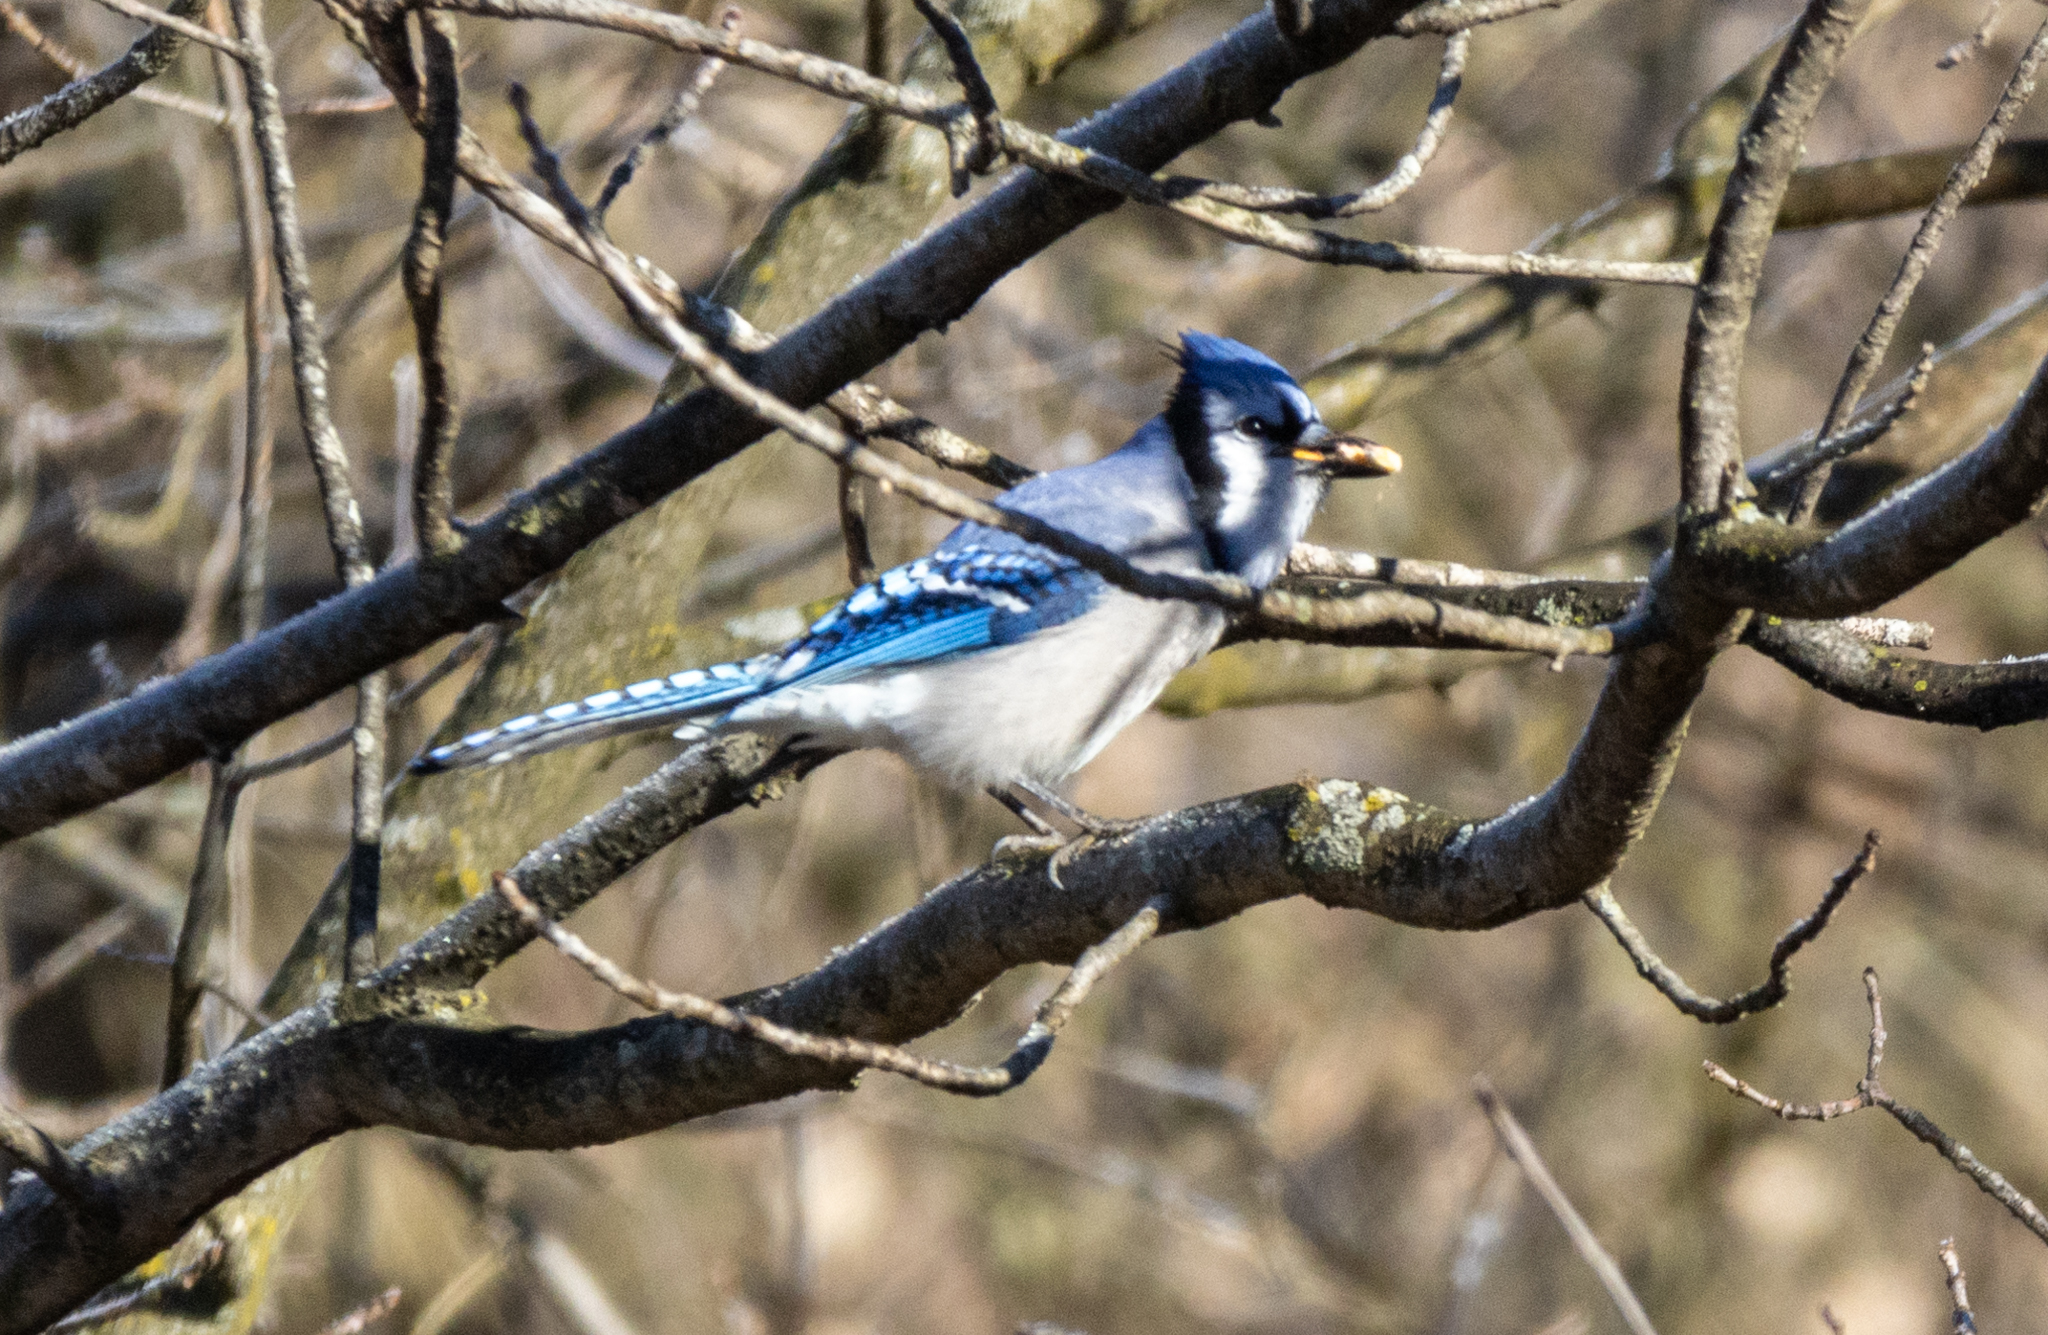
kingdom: Animalia
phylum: Chordata
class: Aves
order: Passeriformes
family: Corvidae
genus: Cyanocitta
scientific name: Cyanocitta cristata
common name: Blue jay
